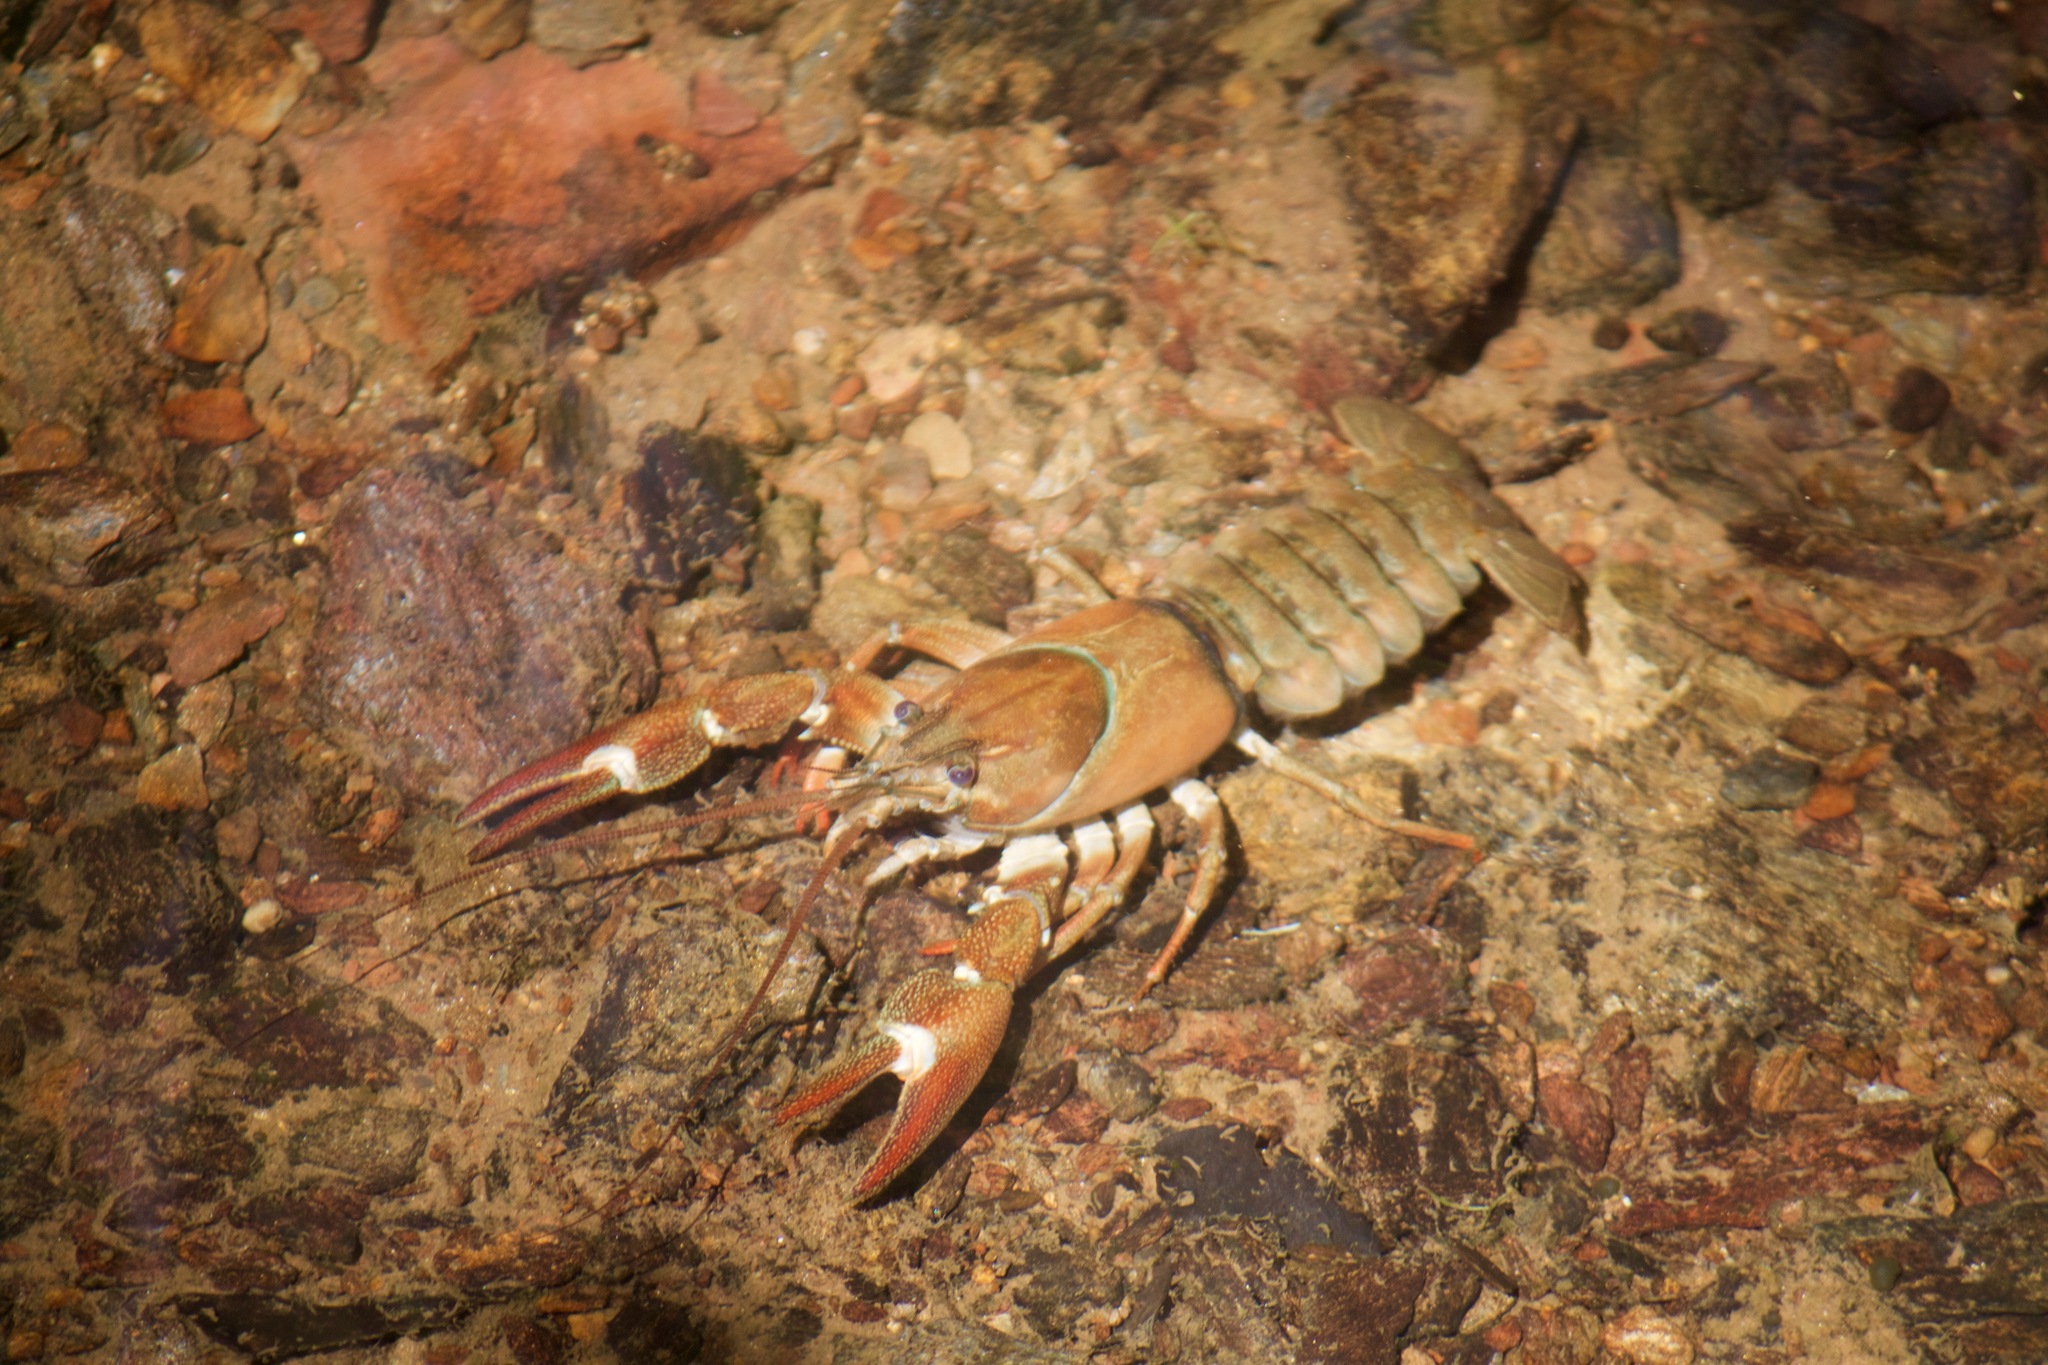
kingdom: Animalia
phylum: Arthropoda
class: Malacostraca
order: Decapoda
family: Astacidae
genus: Pacifastacus
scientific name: Pacifastacus leniusculus
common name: Signal crayfish
